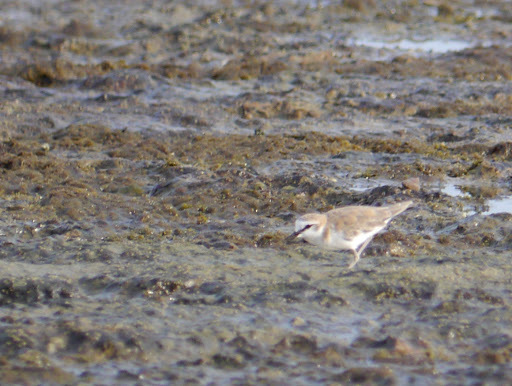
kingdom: Animalia
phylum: Chordata
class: Aves
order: Charadriiformes
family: Charadriidae
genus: Anarhynchus
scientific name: Anarhynchus
